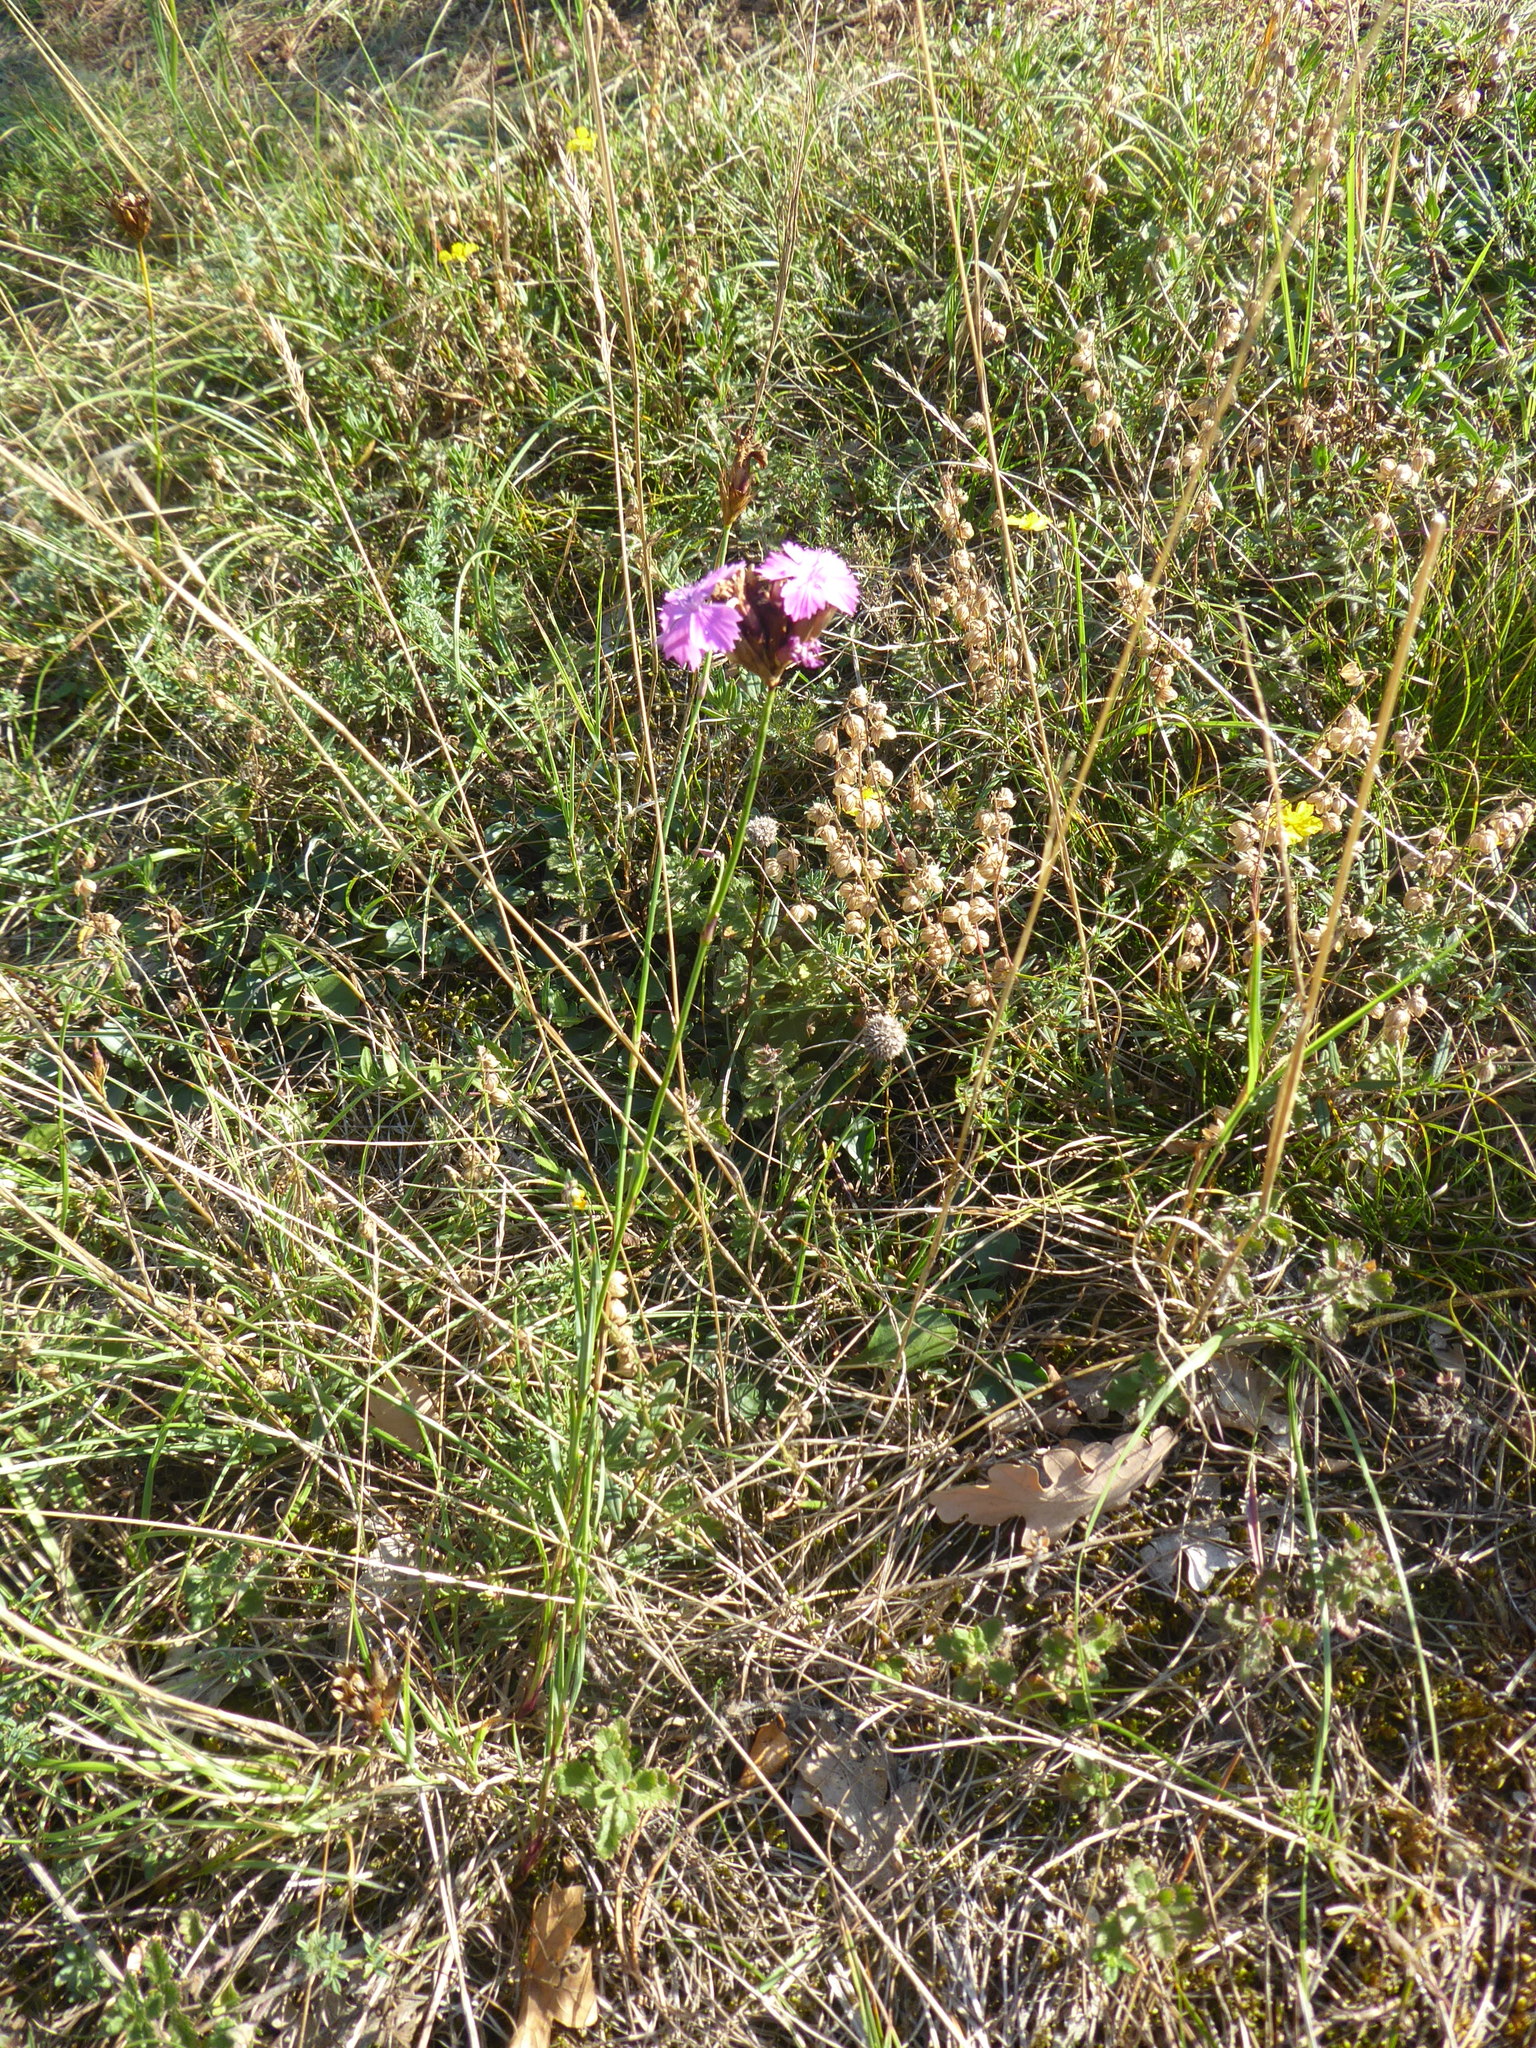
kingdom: Plantae
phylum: Tracheophyta
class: Magnoliopsida
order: Caryophyllales
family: Caryophyllaceae
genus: Dianthus
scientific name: Dianthus carthusianorum
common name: Carthusian pink
